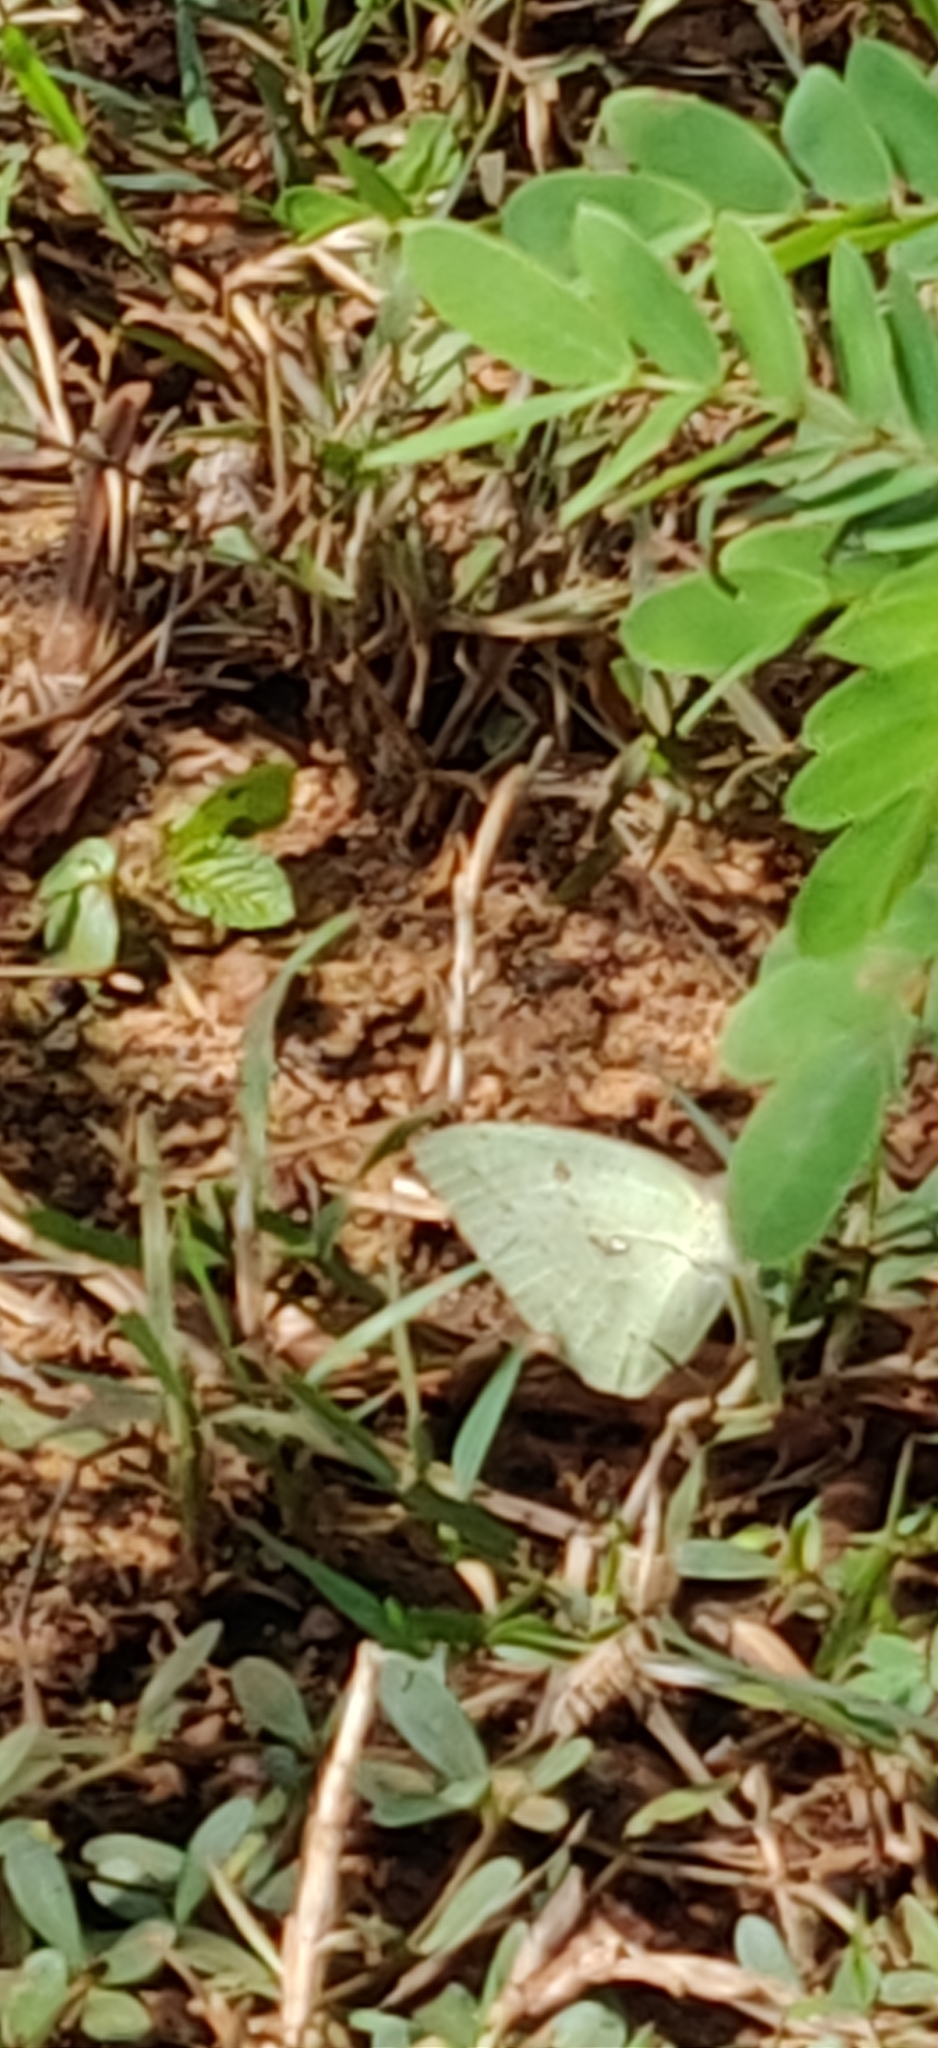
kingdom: Animalia
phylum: Arthropoda
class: Insecta
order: Lepidoptera
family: Pieridae
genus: Catopsilia
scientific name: Catopsilia pyranthe
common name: Mottled emigrant
